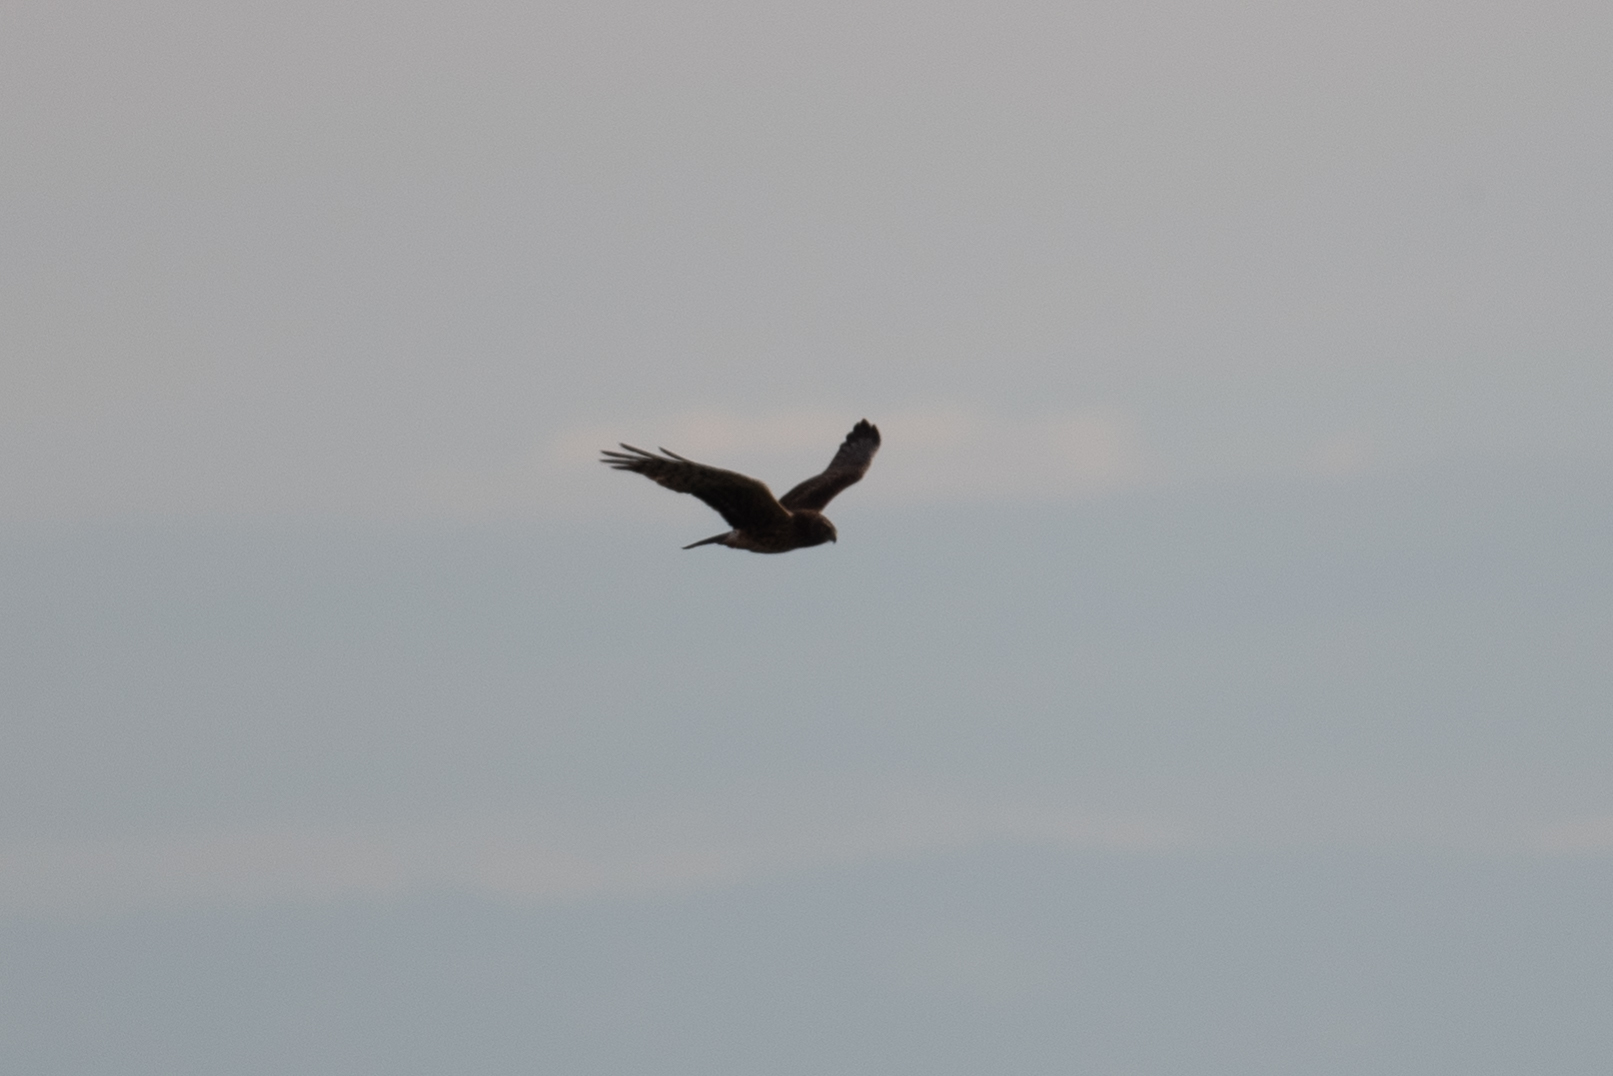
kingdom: Animalia
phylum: Chordata
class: Aves
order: Accipitriformes
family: Accipitridae
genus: Circus
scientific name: Circus cyaneus
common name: Hen harrier
